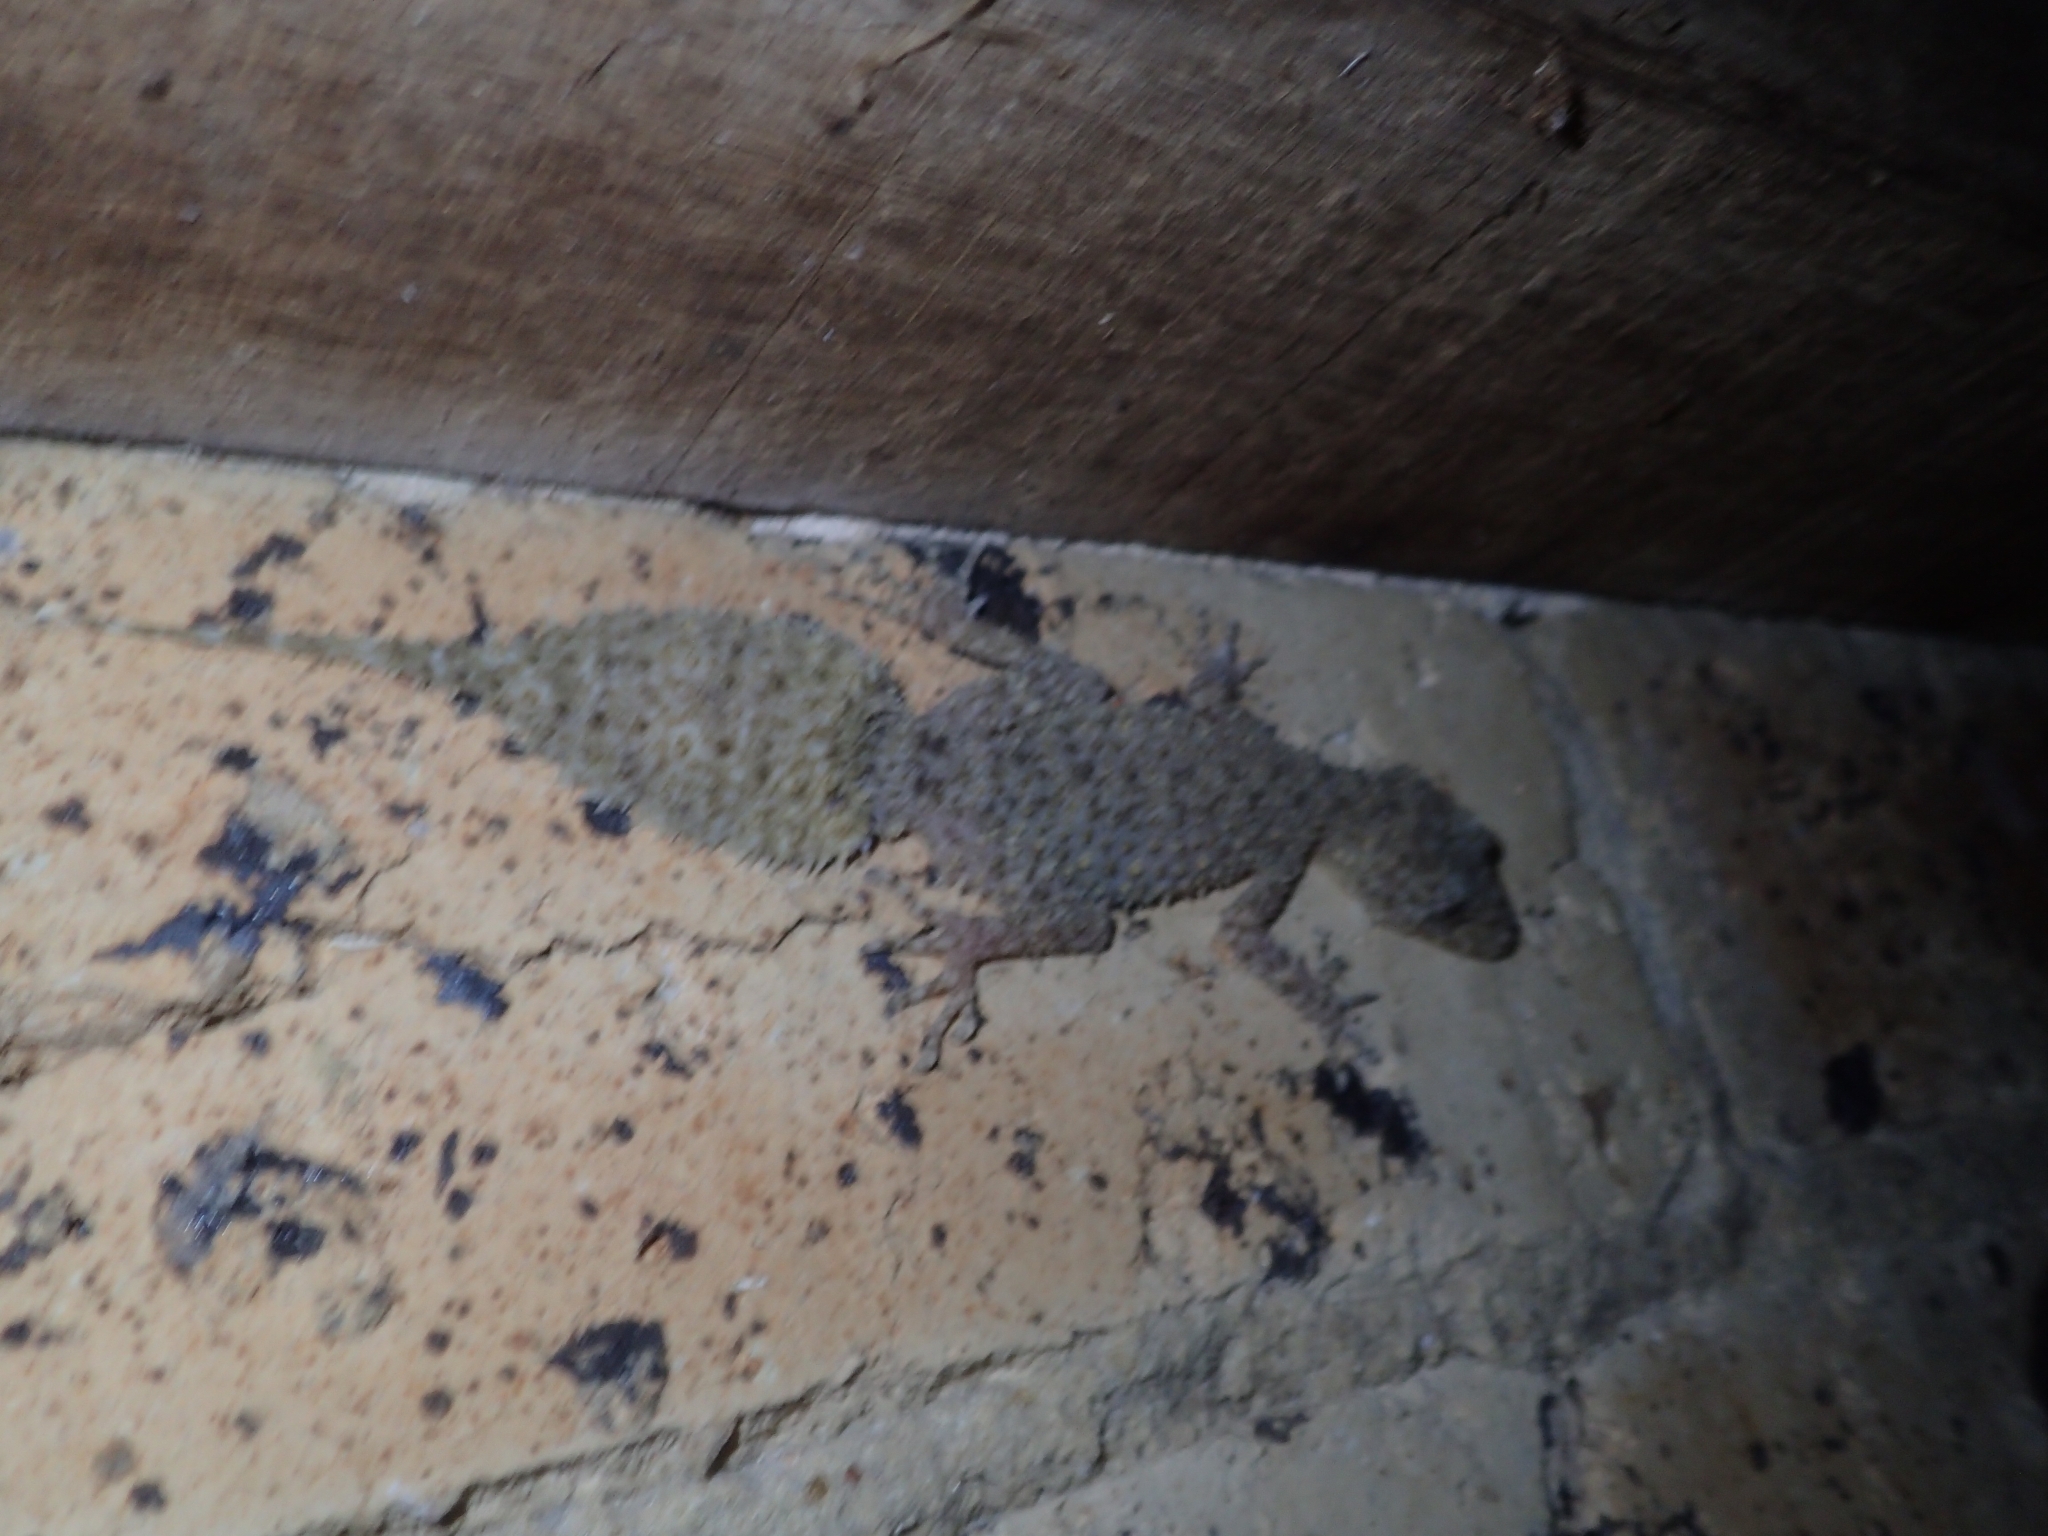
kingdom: Animalia
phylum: Chordata
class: Squamata
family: Carphodactylidae
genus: Phyllurus
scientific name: Phyllurus platurus
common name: Broad-tailed gecko
